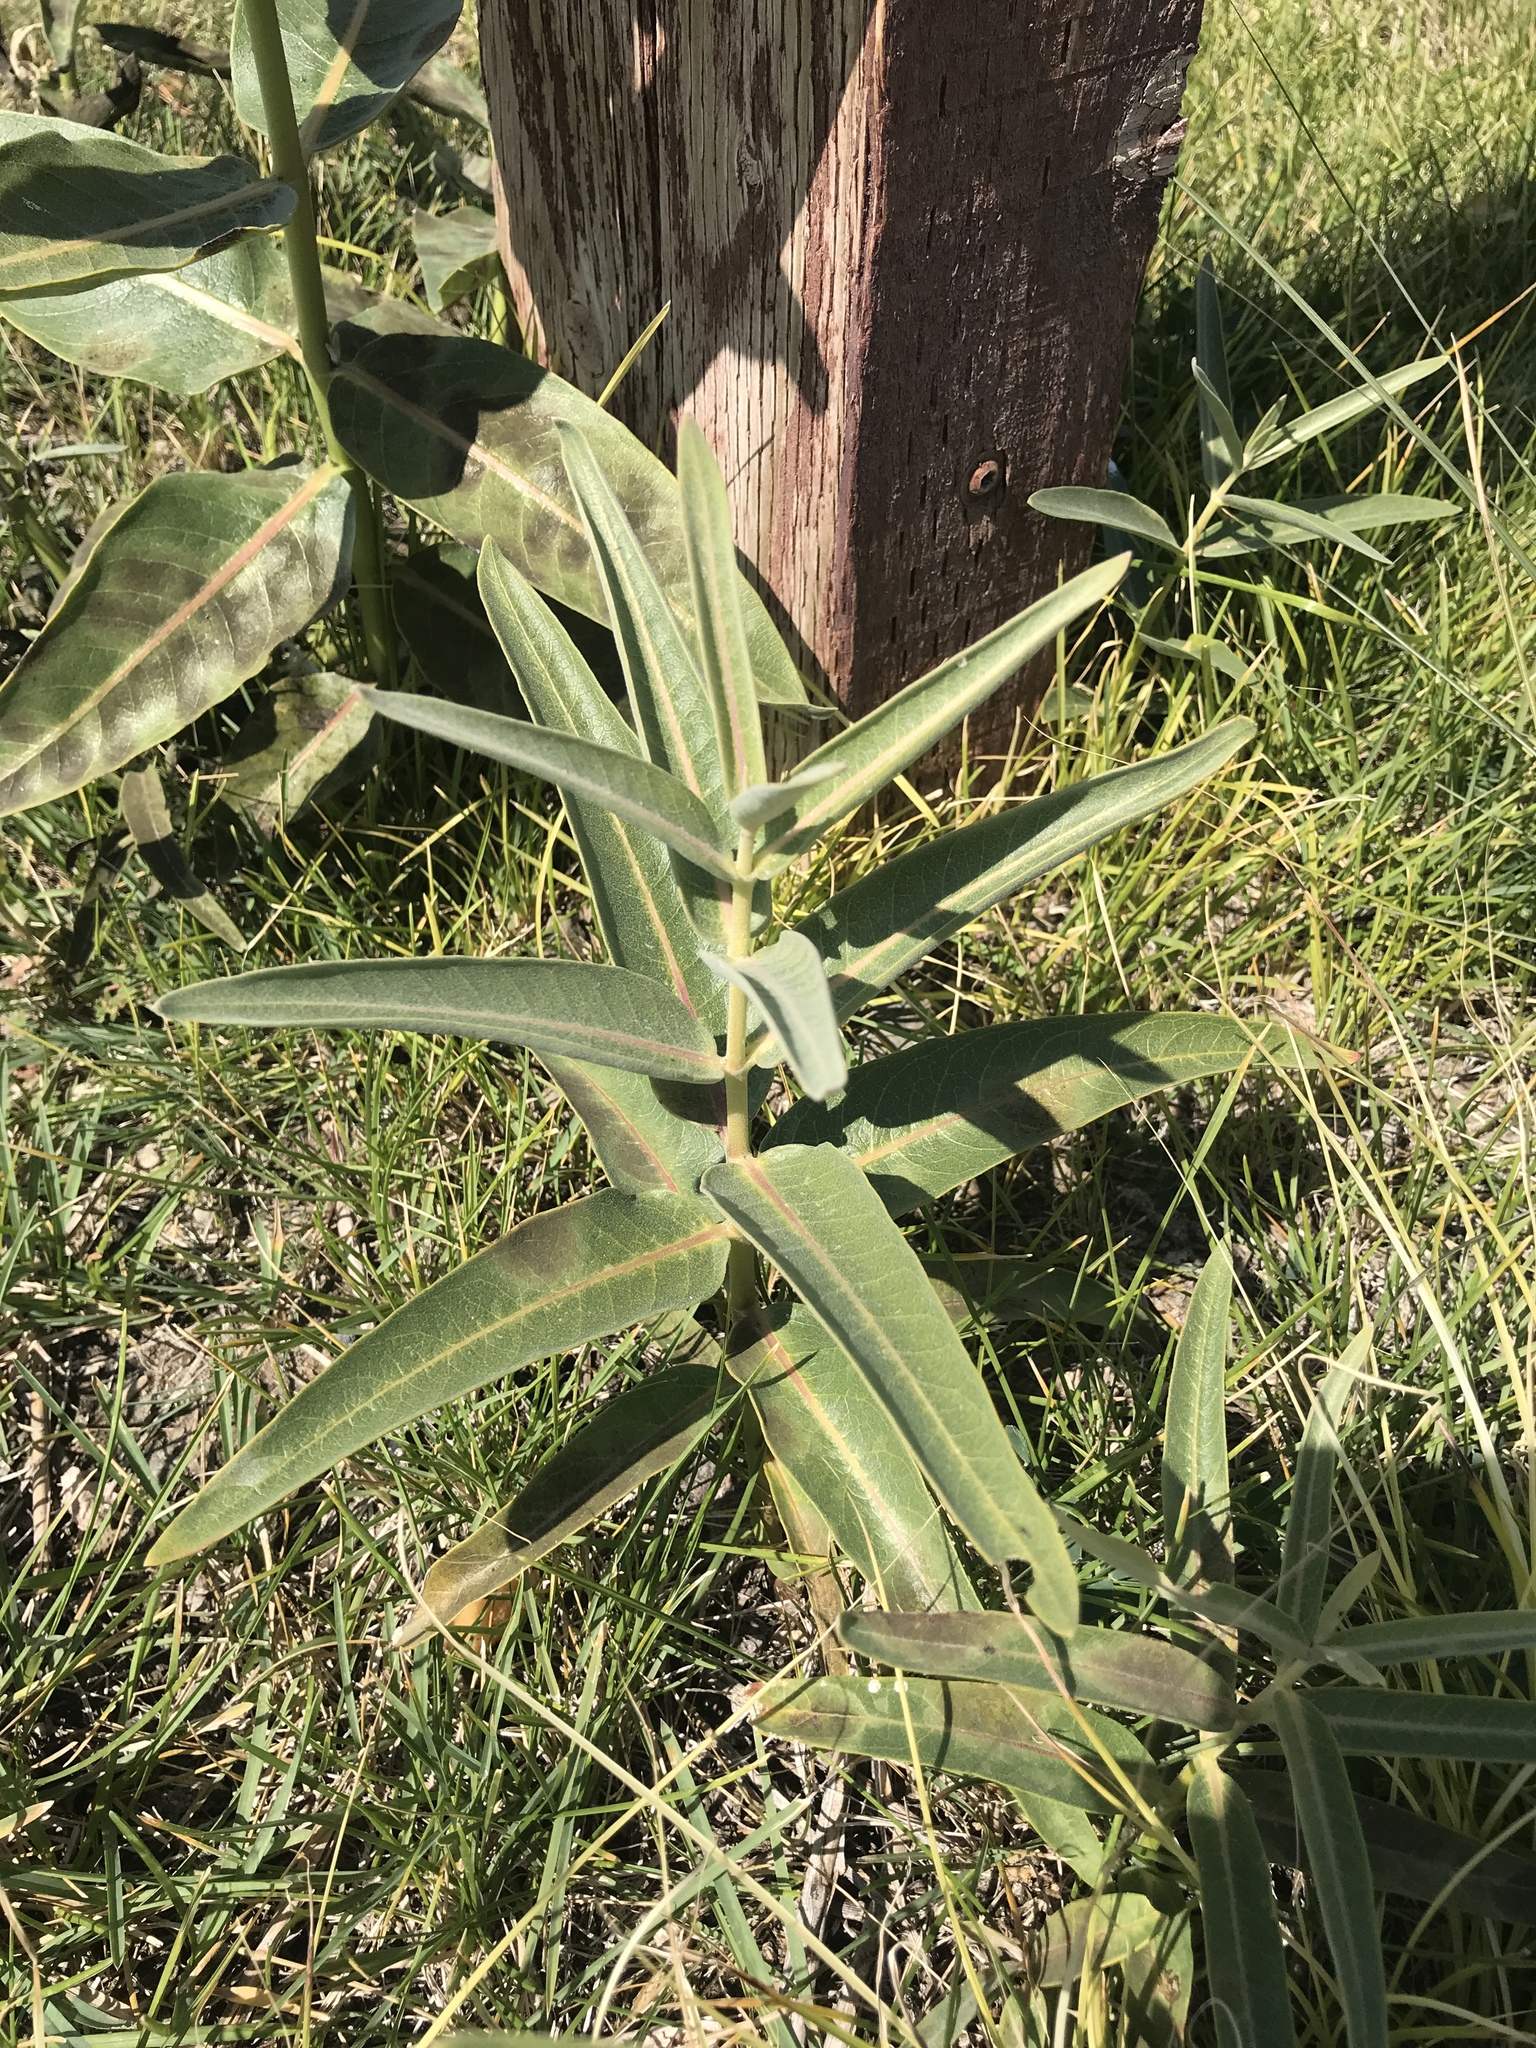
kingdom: Plantae
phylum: Tracheophyta
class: Magnoliopsida
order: Gentianales
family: Apocynaceae
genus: Asclepias
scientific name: Asclepias speciosa
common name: Showy milkweed
